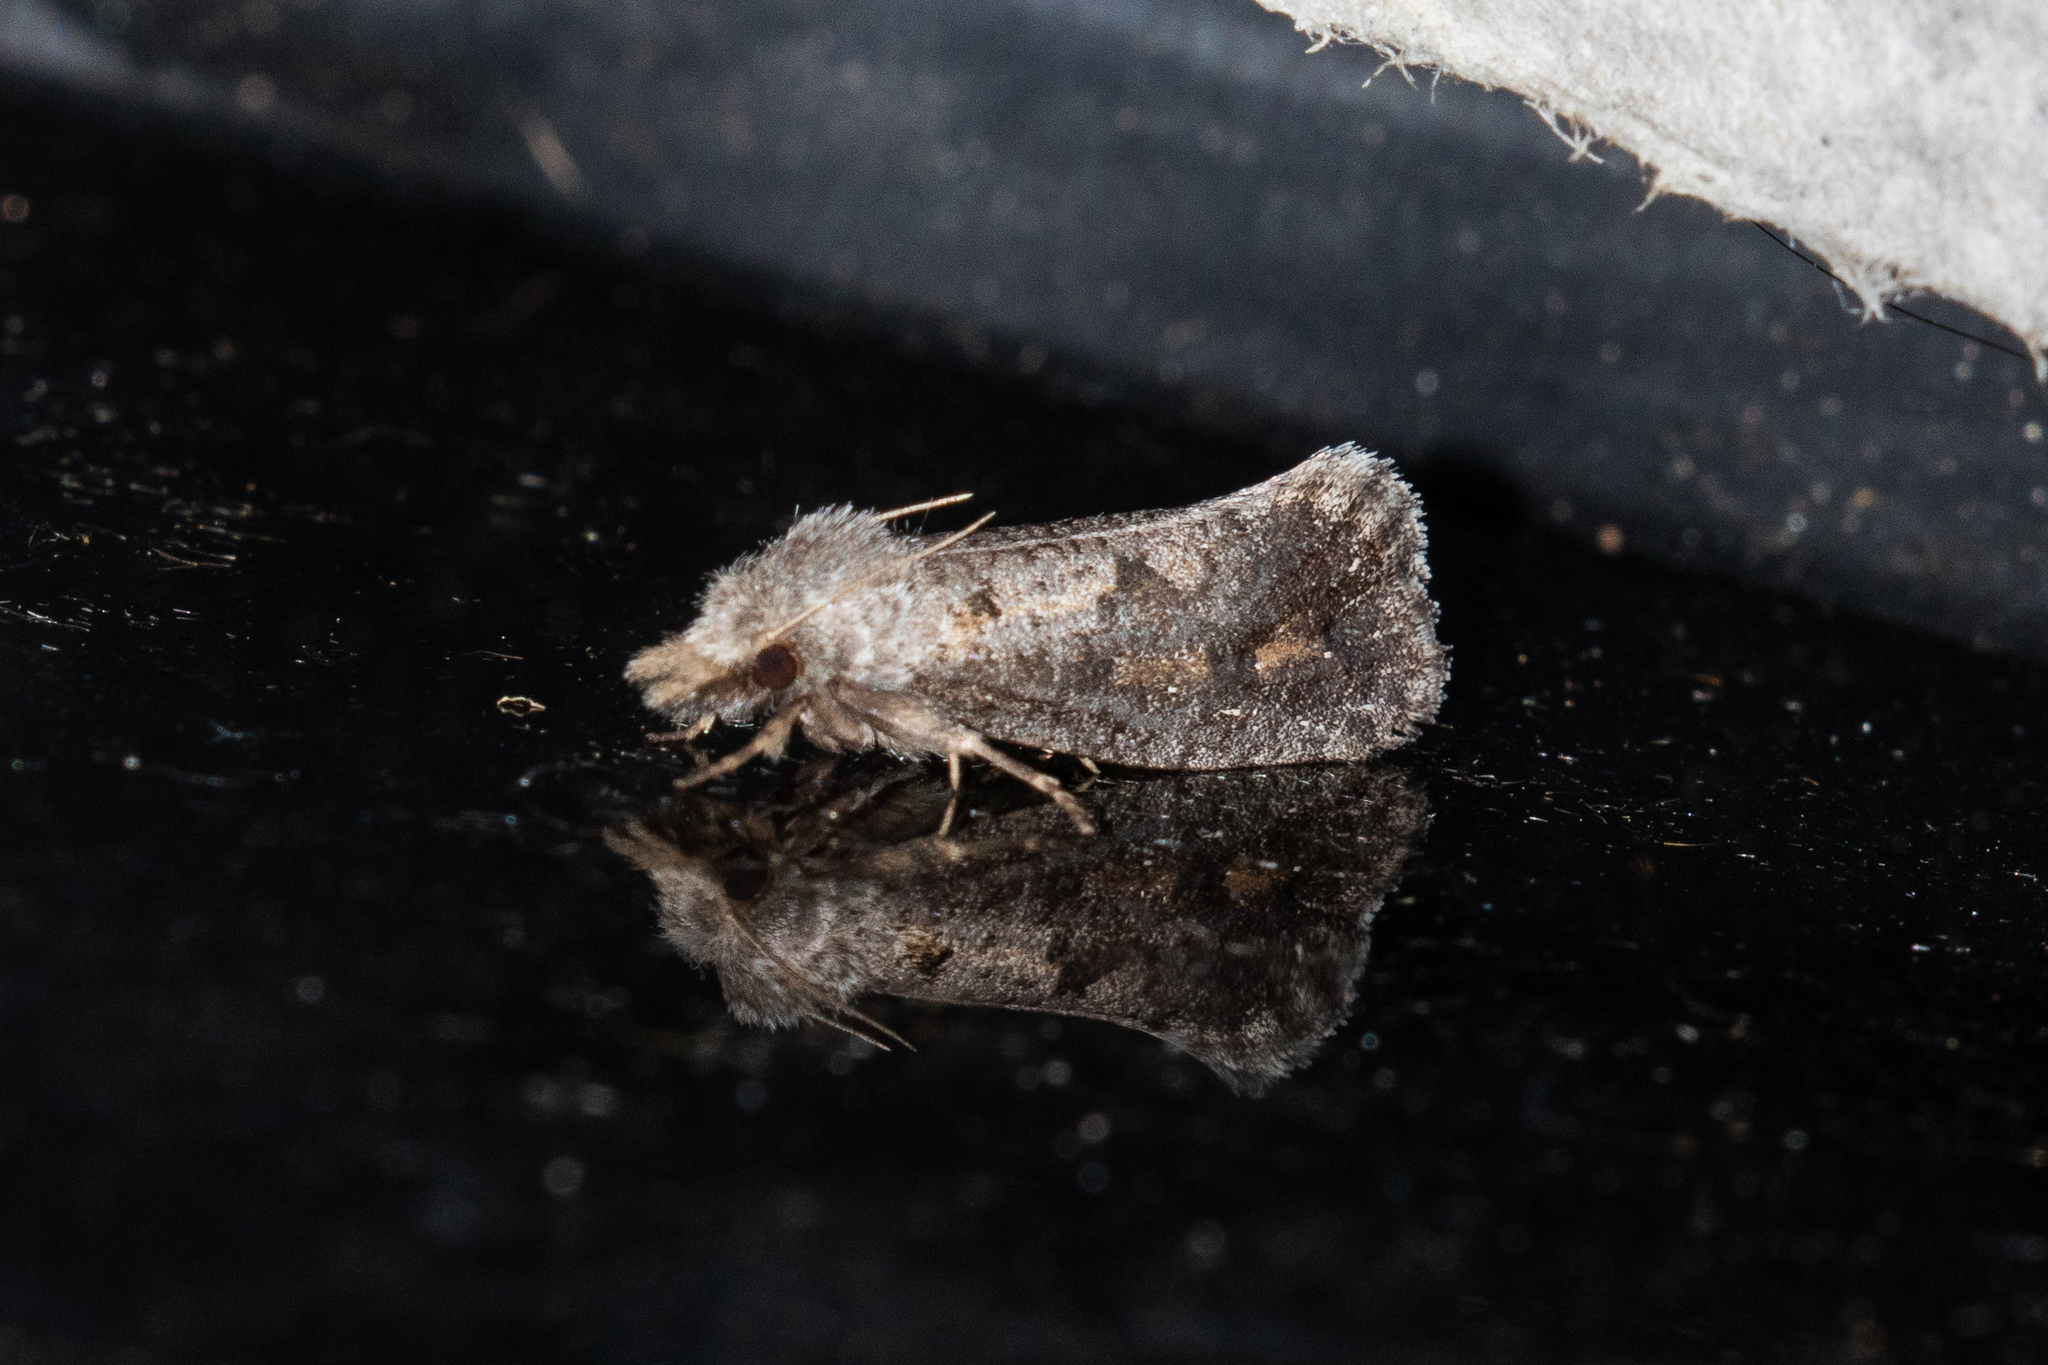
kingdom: Animalia
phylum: Arthropoda
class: Insecta
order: Lepidoptera
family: Tineidae
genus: Acrolophus
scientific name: Acrolophus popeanella
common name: Clemens' grass tubeworm moth
